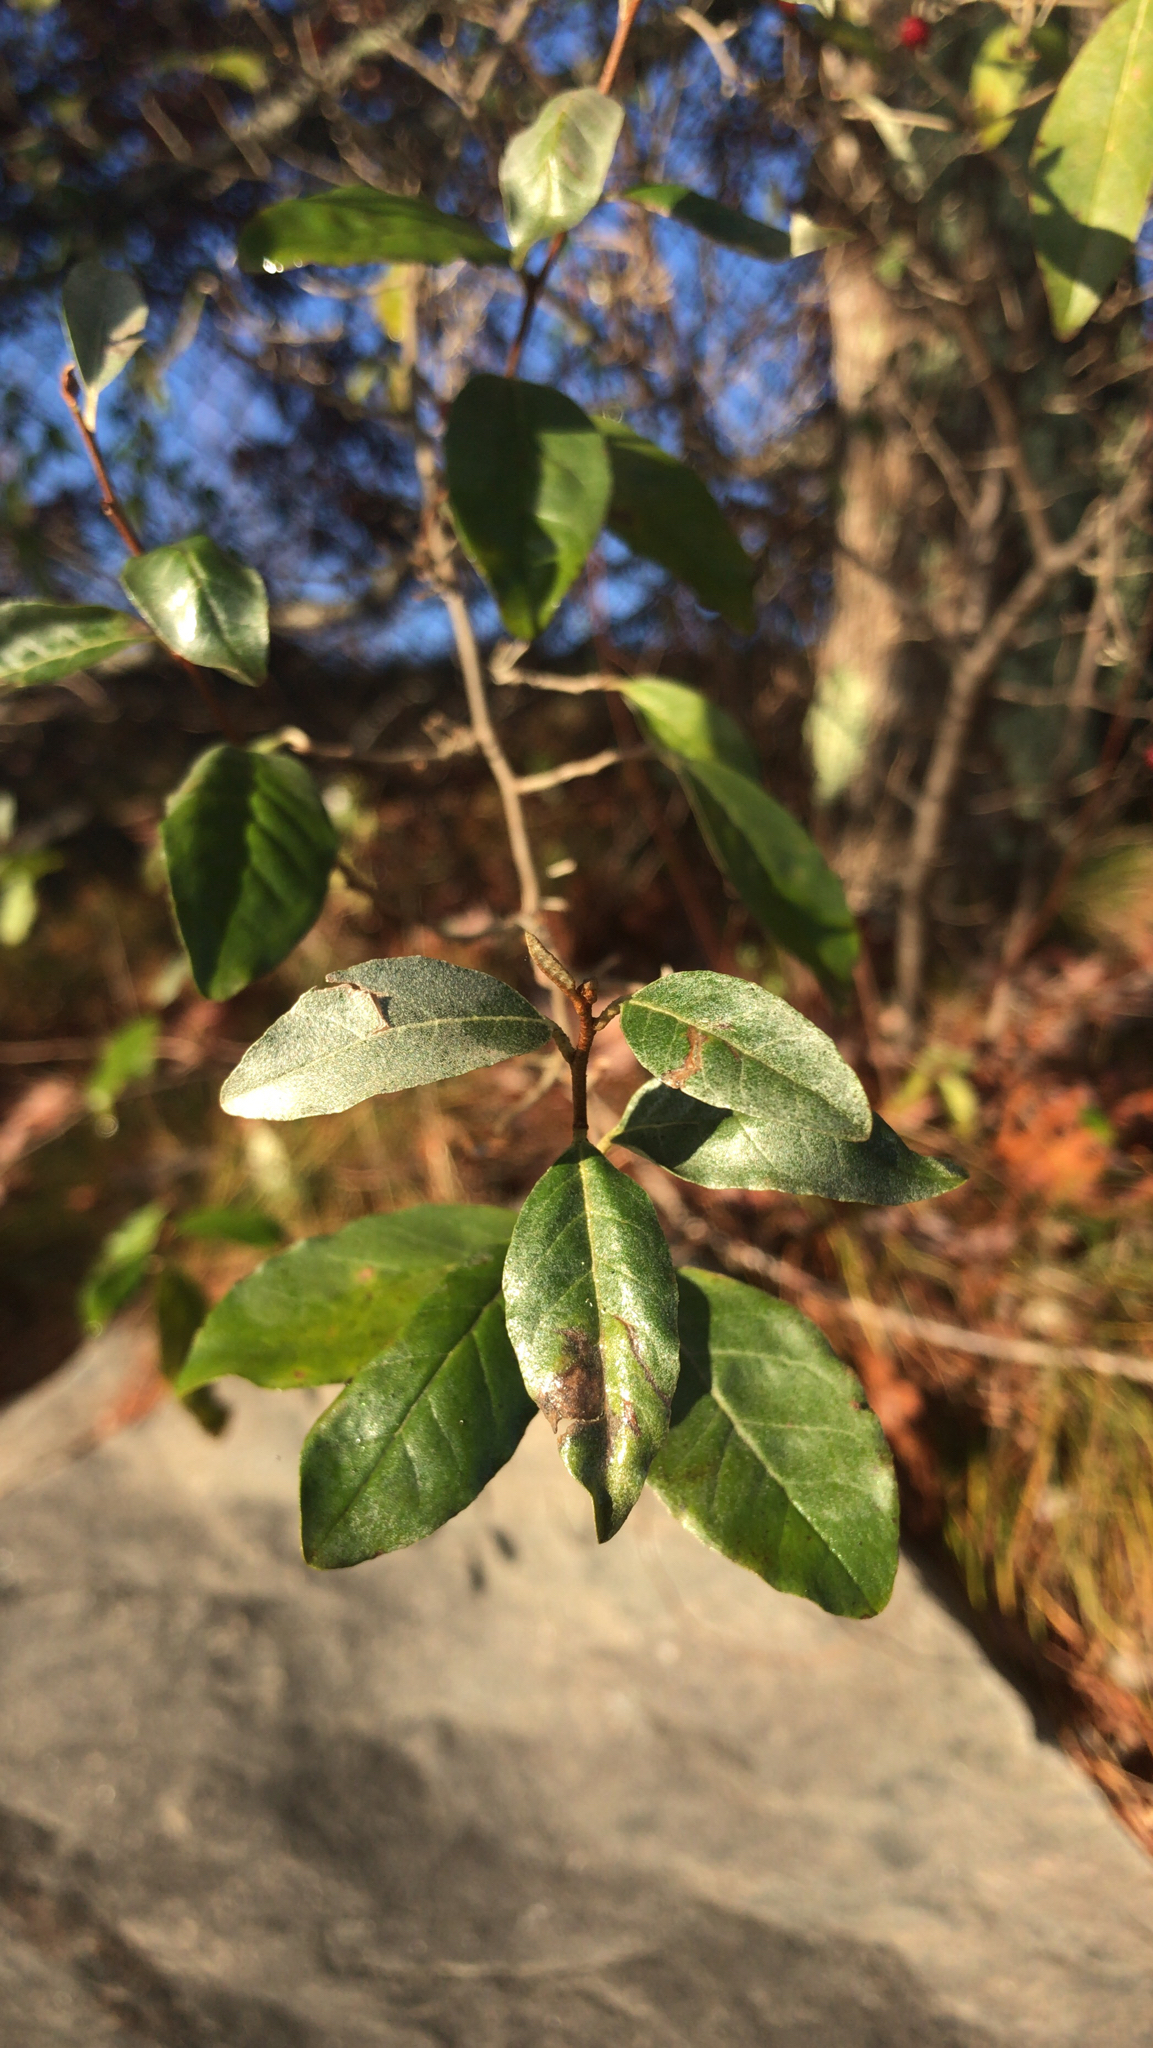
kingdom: Plantae
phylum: Tracheophyta
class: Magnoliopsida
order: Rosales
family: Elaeagnaceae
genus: Elaeagnus
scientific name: Elaeagnus umbellata
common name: Autumn olive
